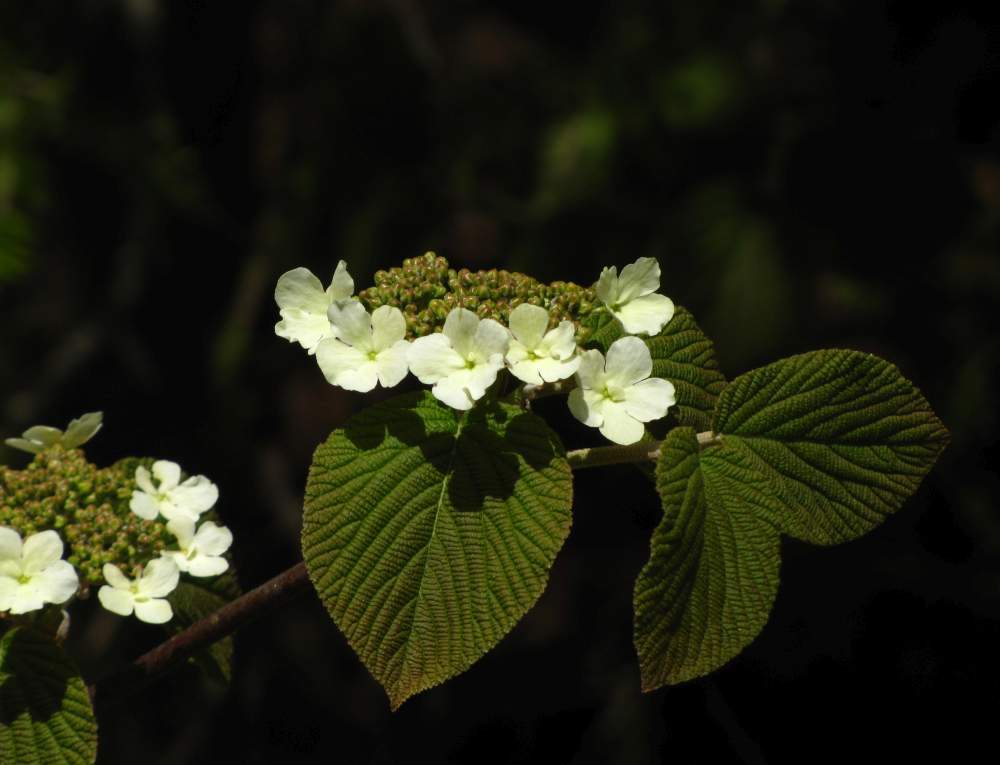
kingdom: Plantae
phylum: Tracheophyta
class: Magnoliopsida
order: Dipsacales
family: Viburnaceae
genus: Viburnum
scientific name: Viburnum lantanoides
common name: Hobblebush
